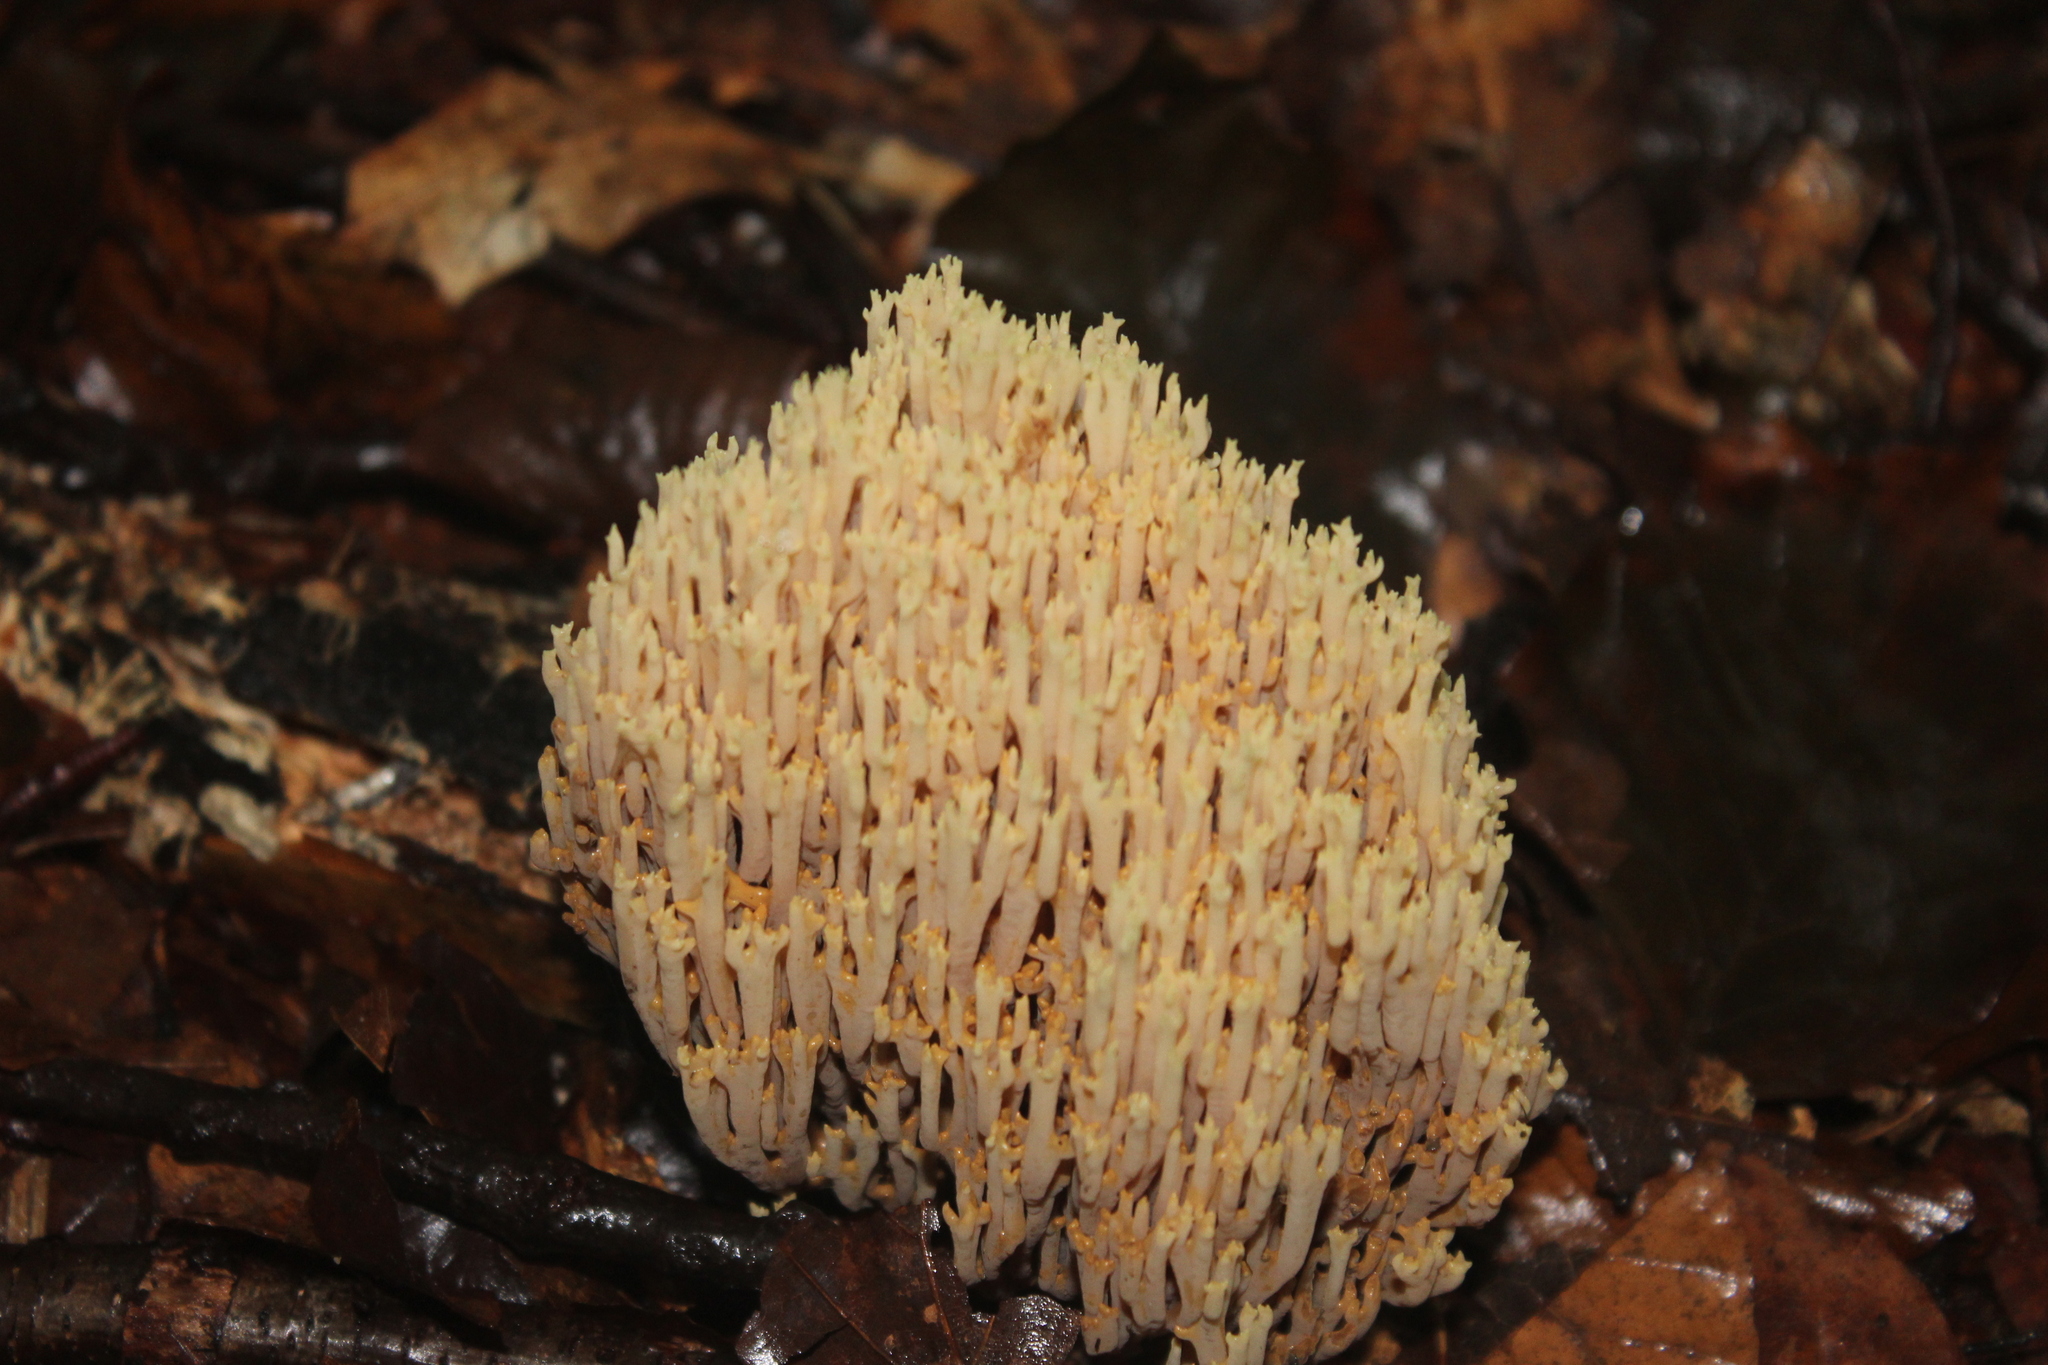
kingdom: Fungi
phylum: Basidiomycota
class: Agaricomycetes
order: Gomphales
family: Gomphaceae
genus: Ramaria
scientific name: Ramaria stricta
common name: Upright coral
